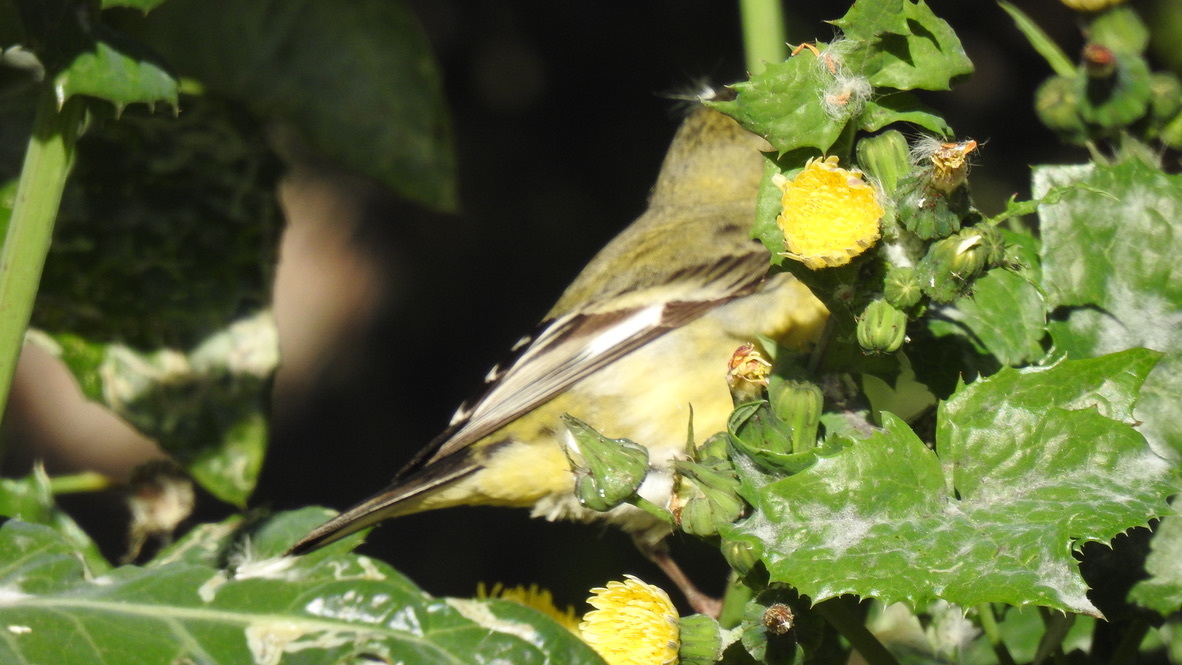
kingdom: Animalia
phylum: Chordata
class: Aves
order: Passeriformes
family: Fringillidae
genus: Spinus
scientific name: Spinus psaltria
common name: Lesser goldfinch
